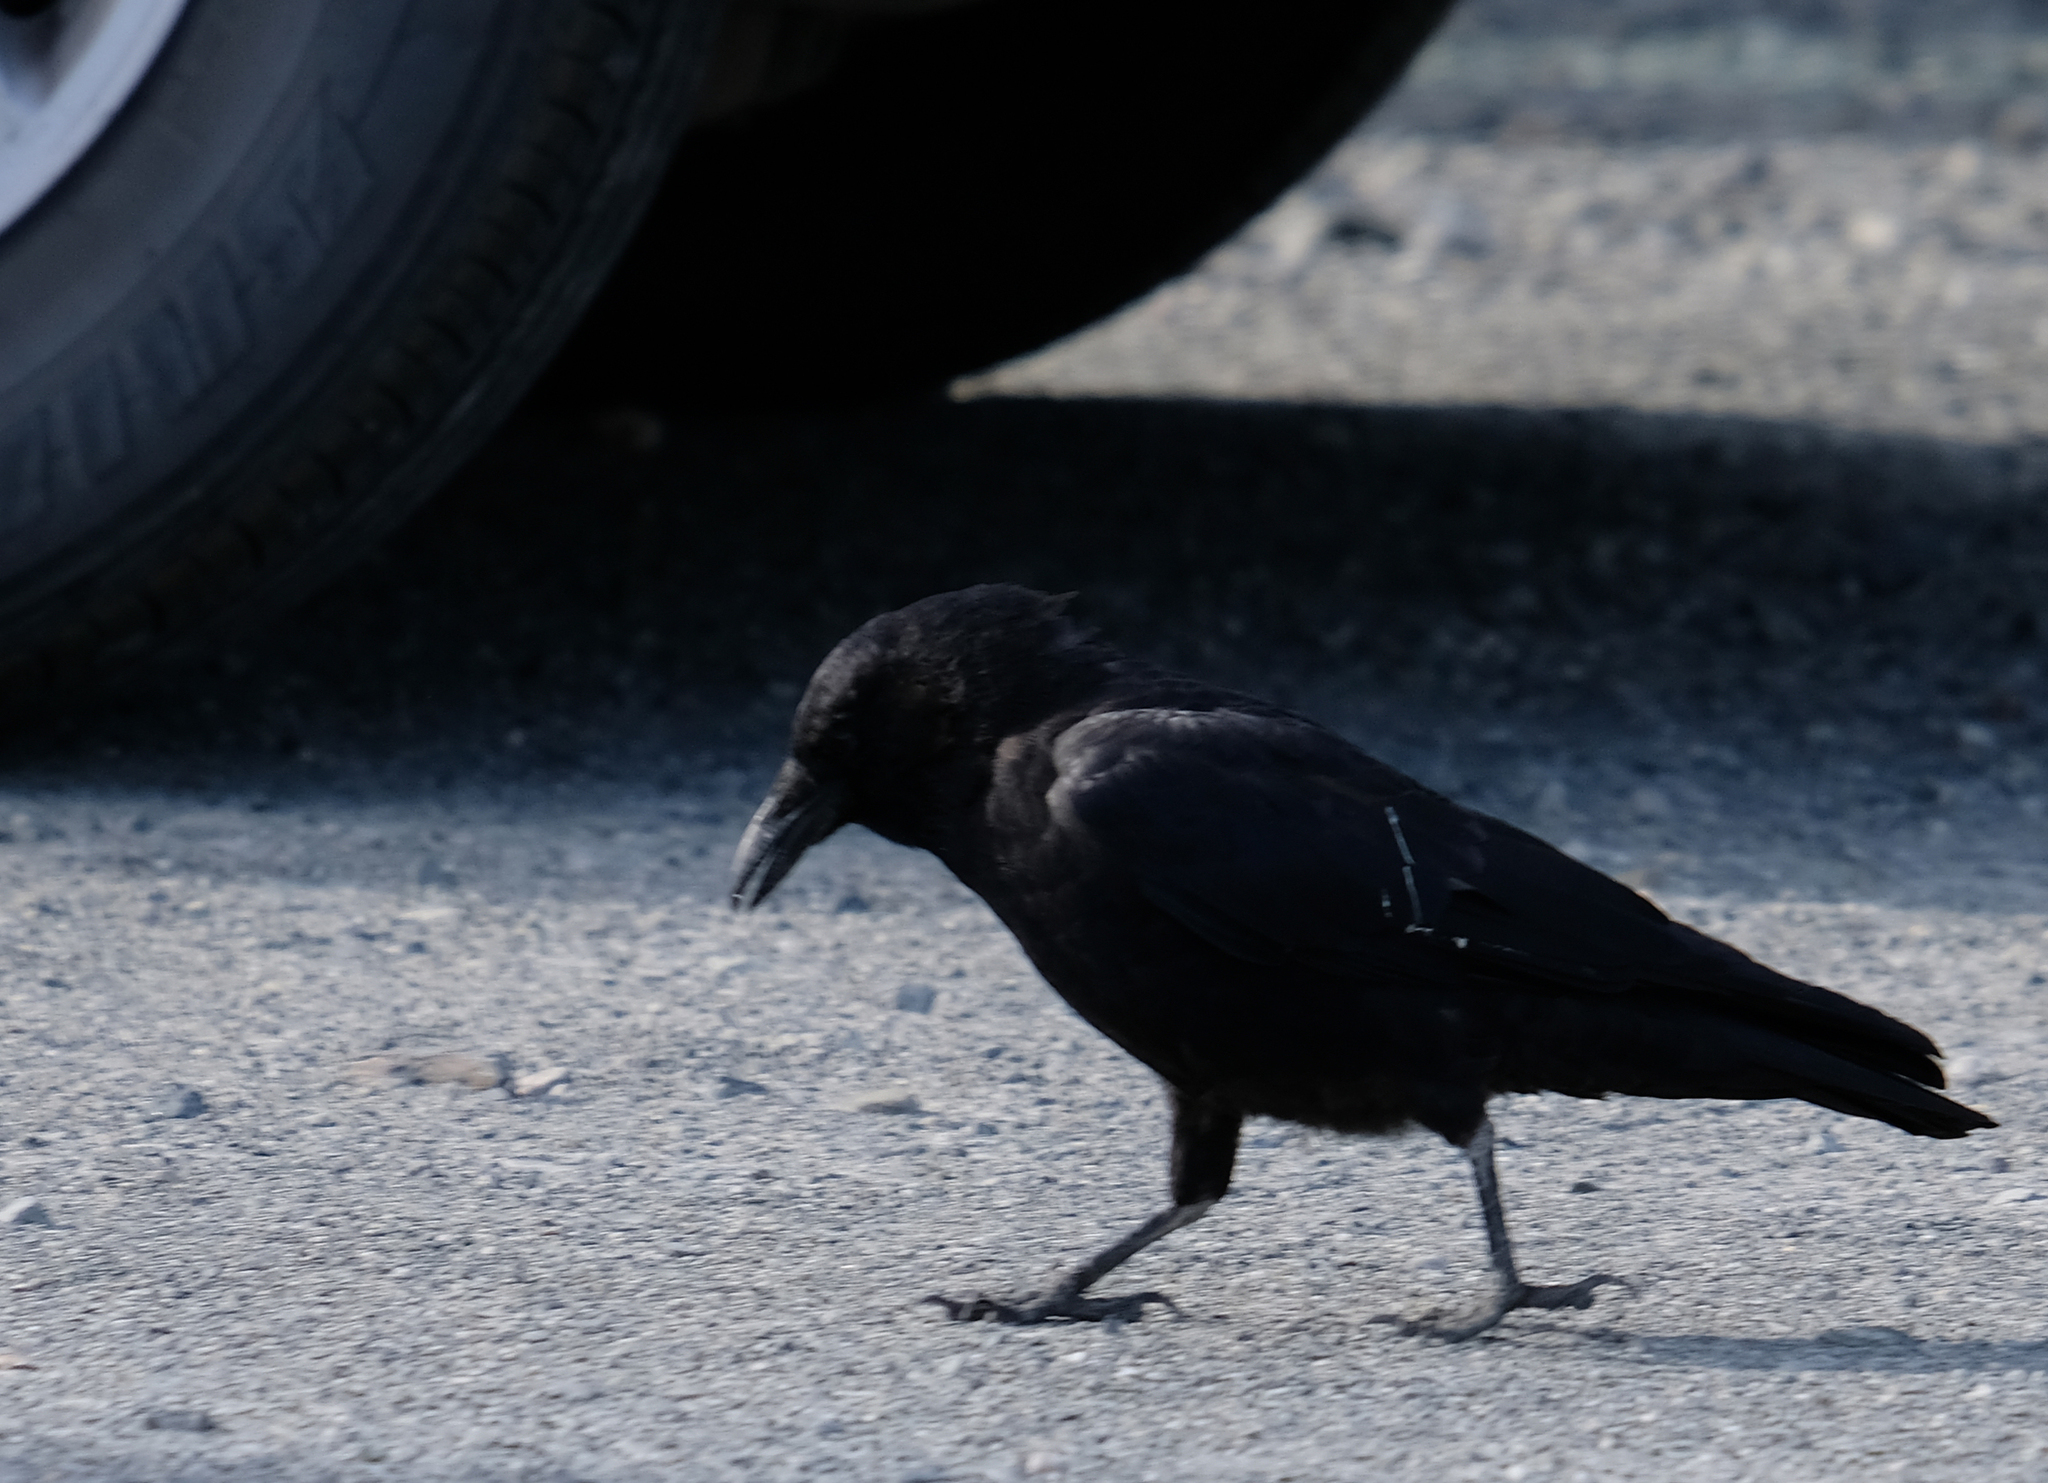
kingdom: Animalia
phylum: Chordata
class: Aves
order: Passeriformes
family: Corvidae
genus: Corvus
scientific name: Corvus brachyrhynchos
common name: American crow
